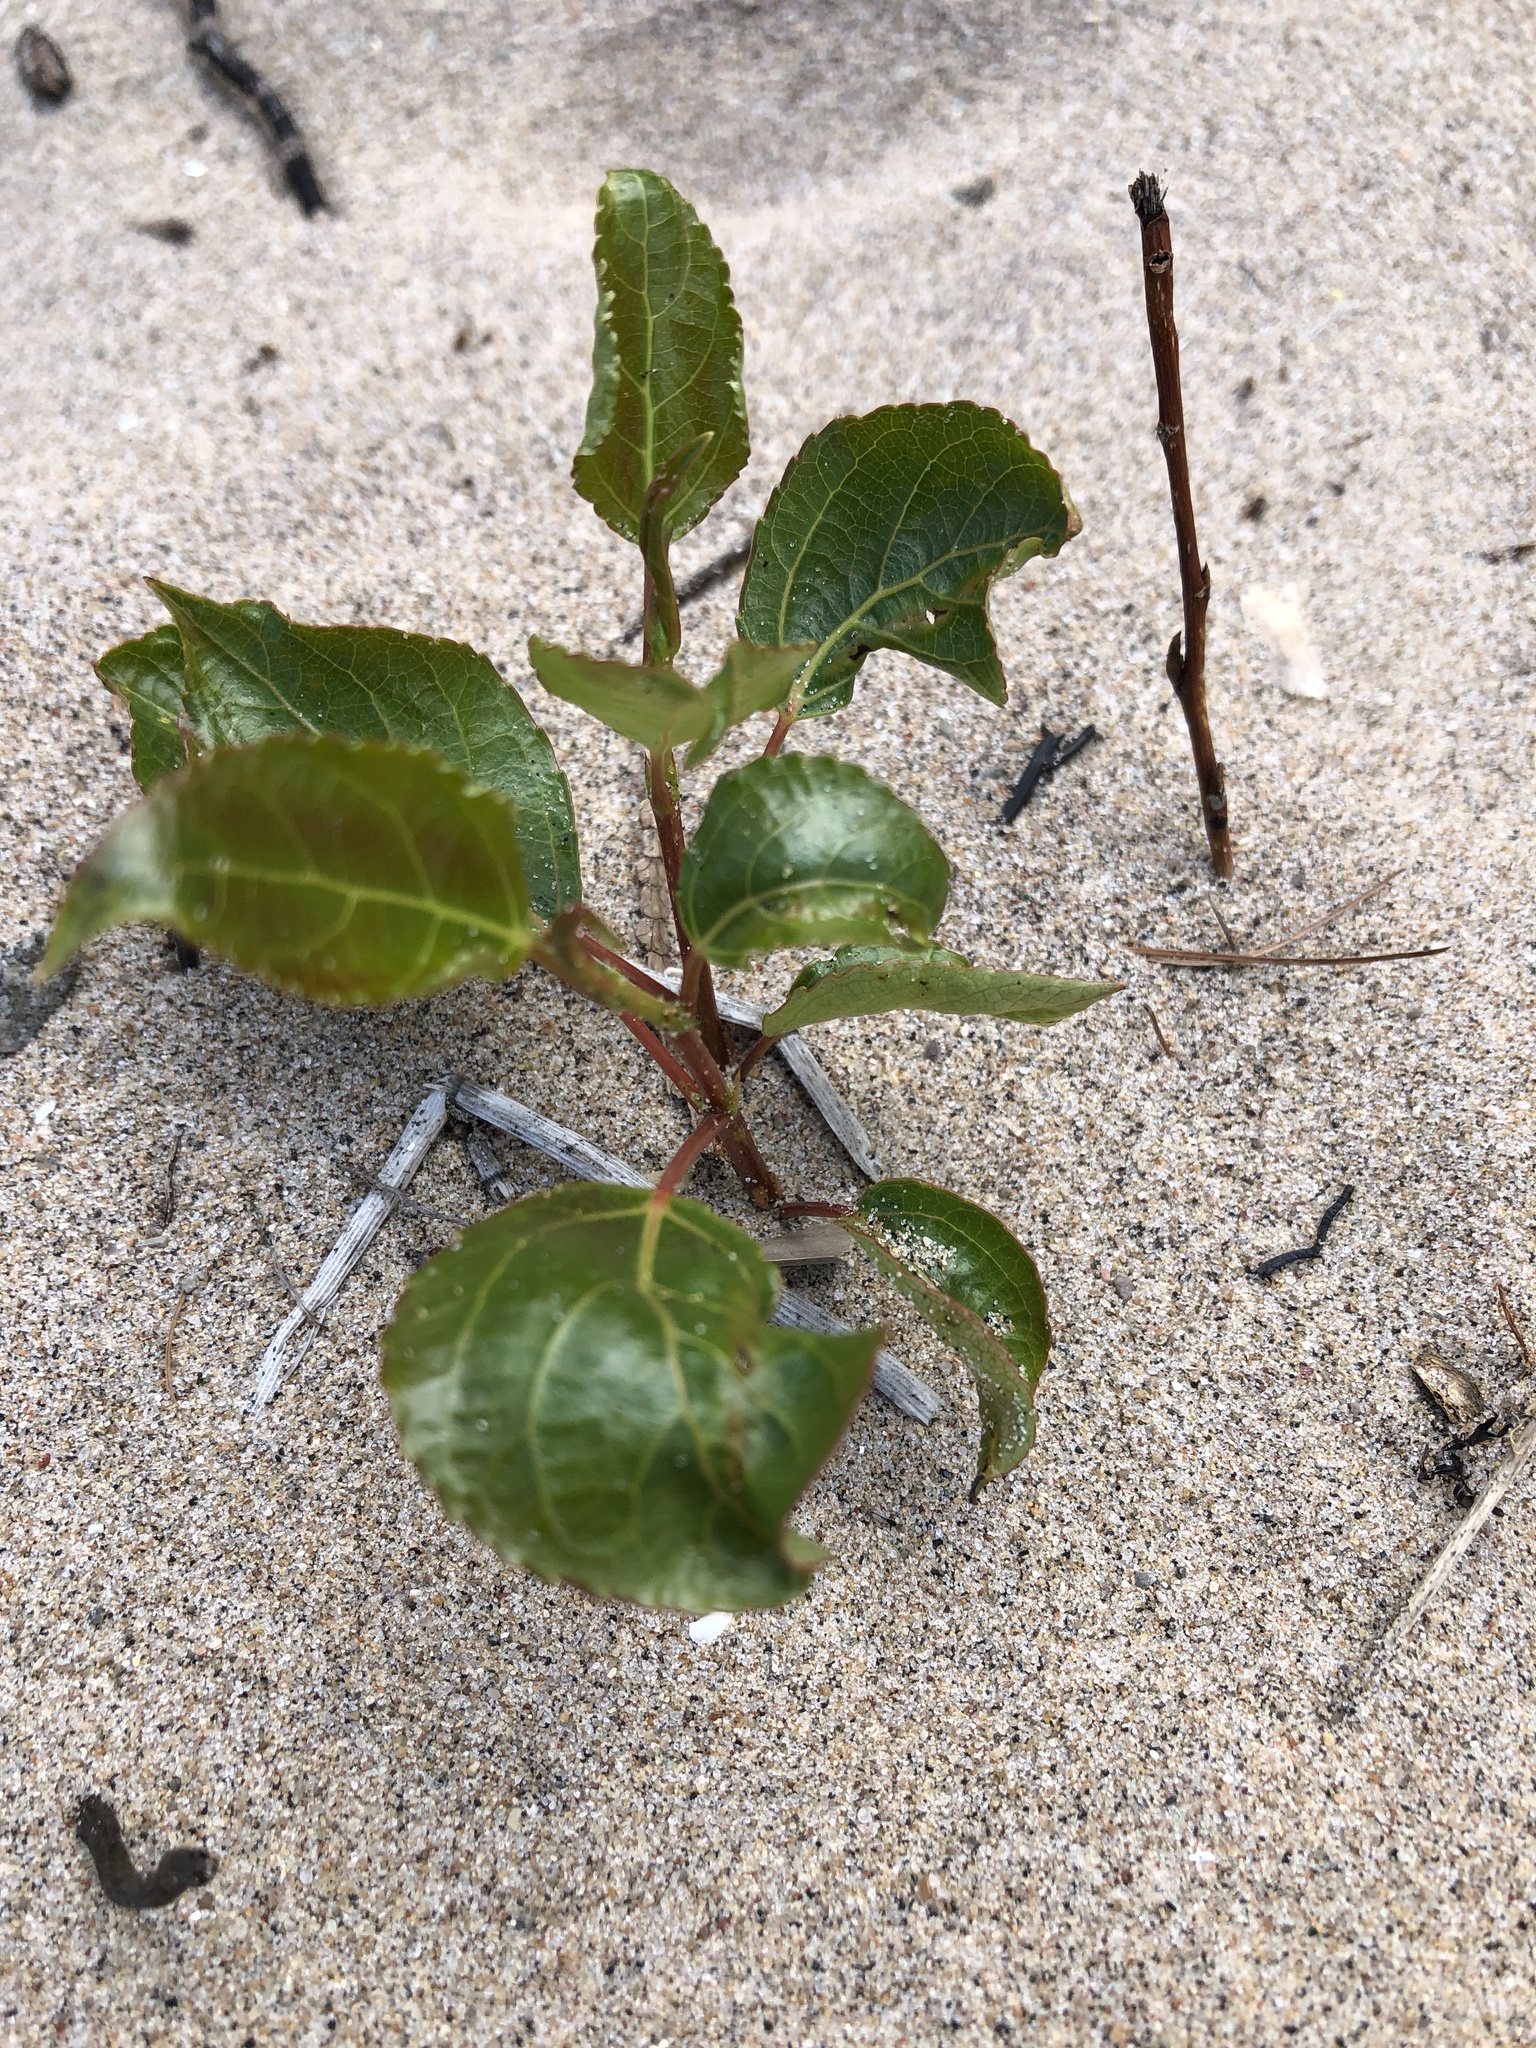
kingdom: Plantae
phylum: Tracheophyta
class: Magnoliopsida
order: Malpighiales
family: Salicaceae
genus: Populus
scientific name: Populus balsamifera
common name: Balsam poplar
